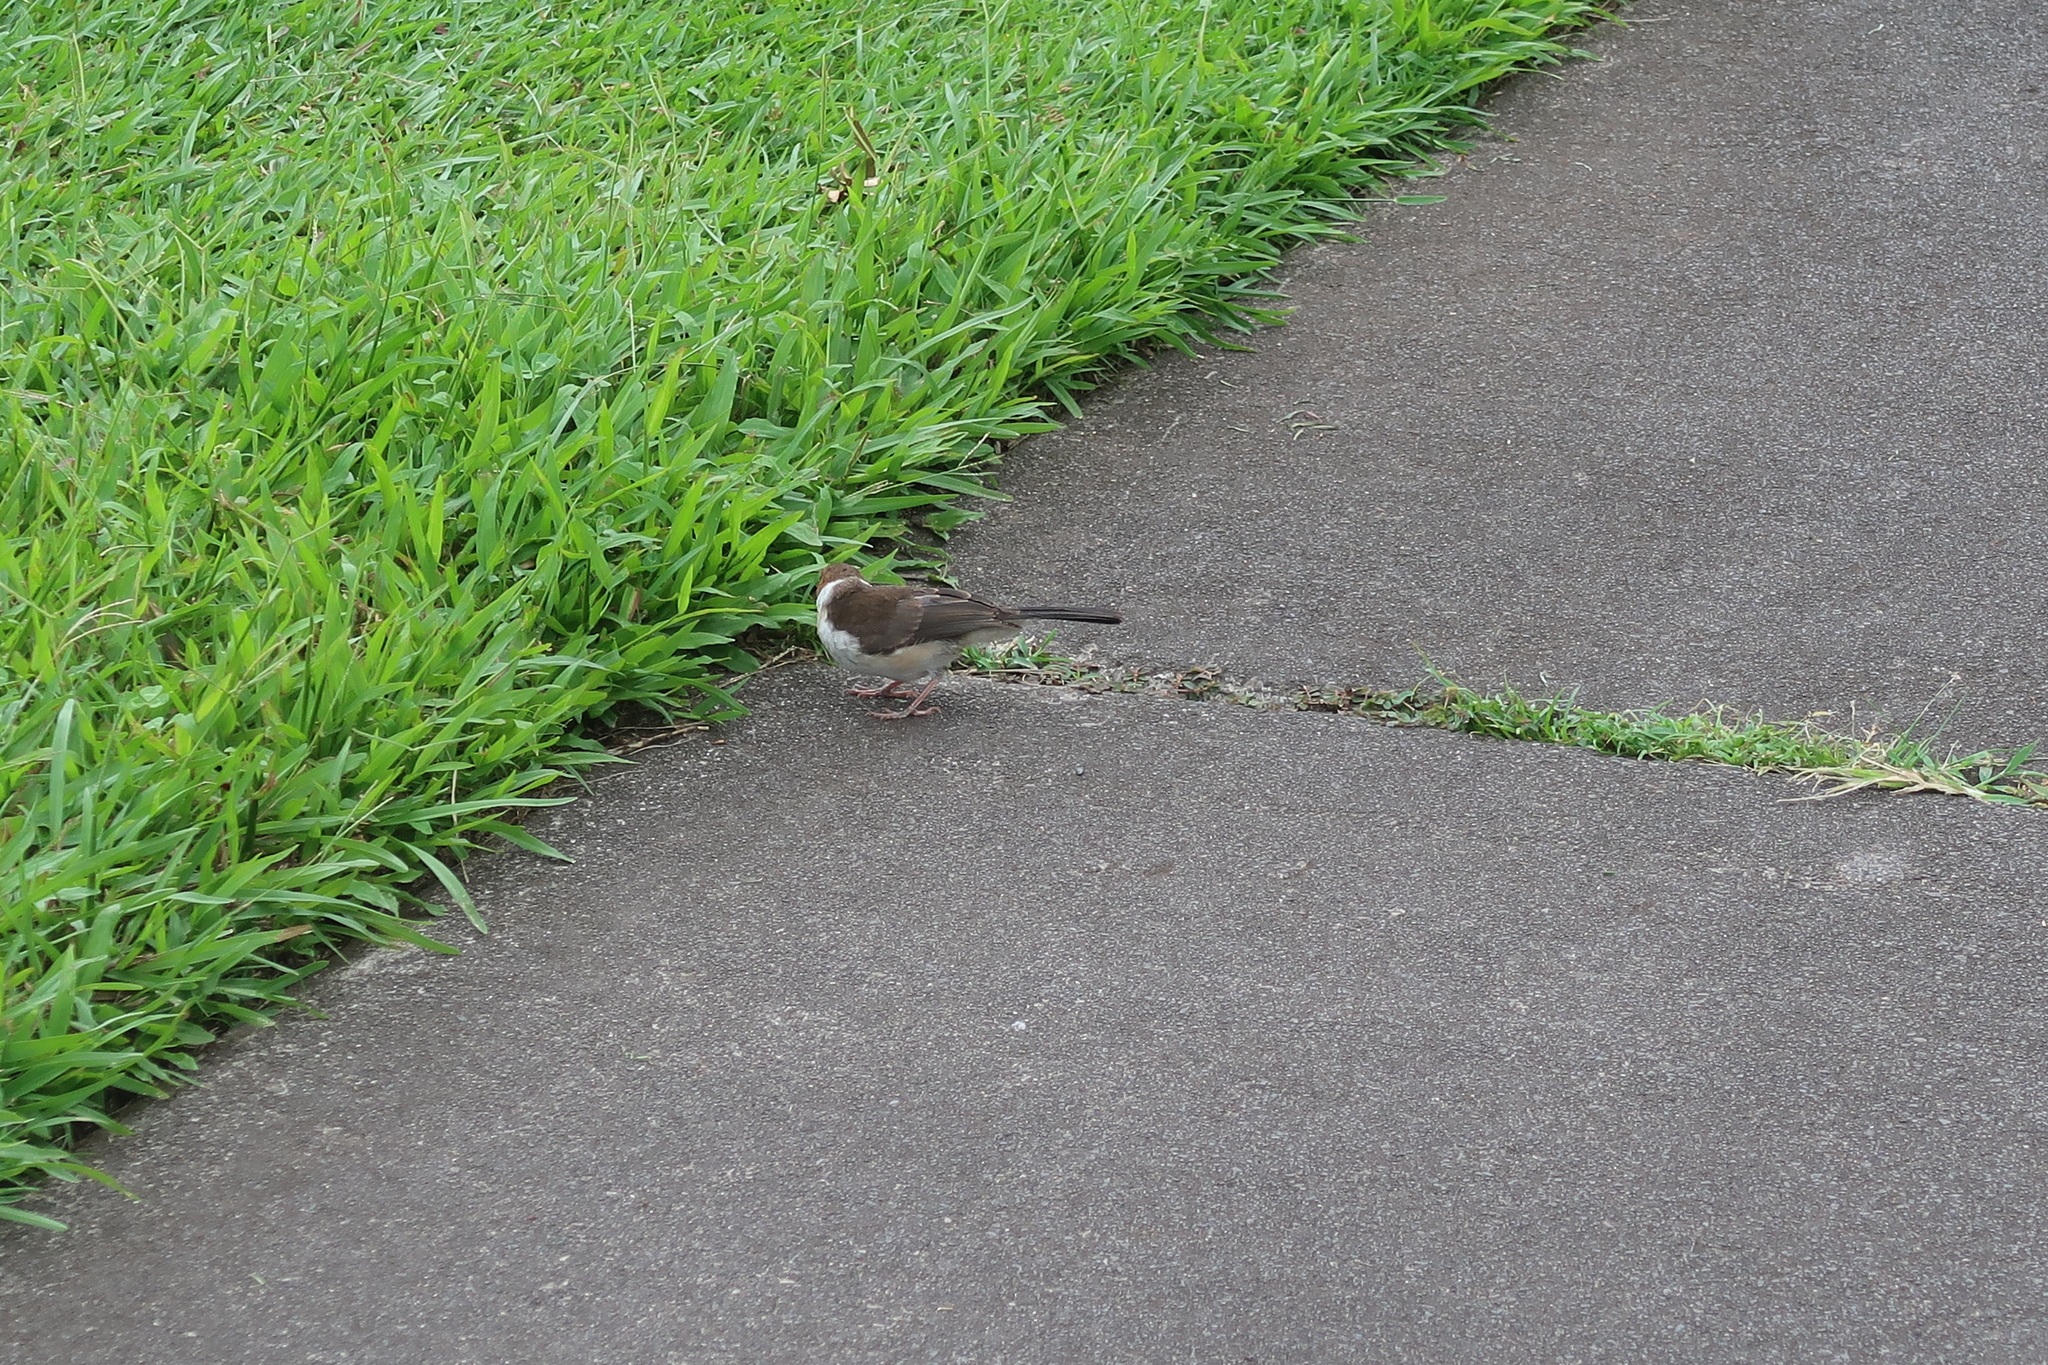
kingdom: Animalia
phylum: Chordata
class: Aves
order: Passeriformes
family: Thraupidae
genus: Paroaria
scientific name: Paroaria capitata
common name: Yellow-billed cardinal
